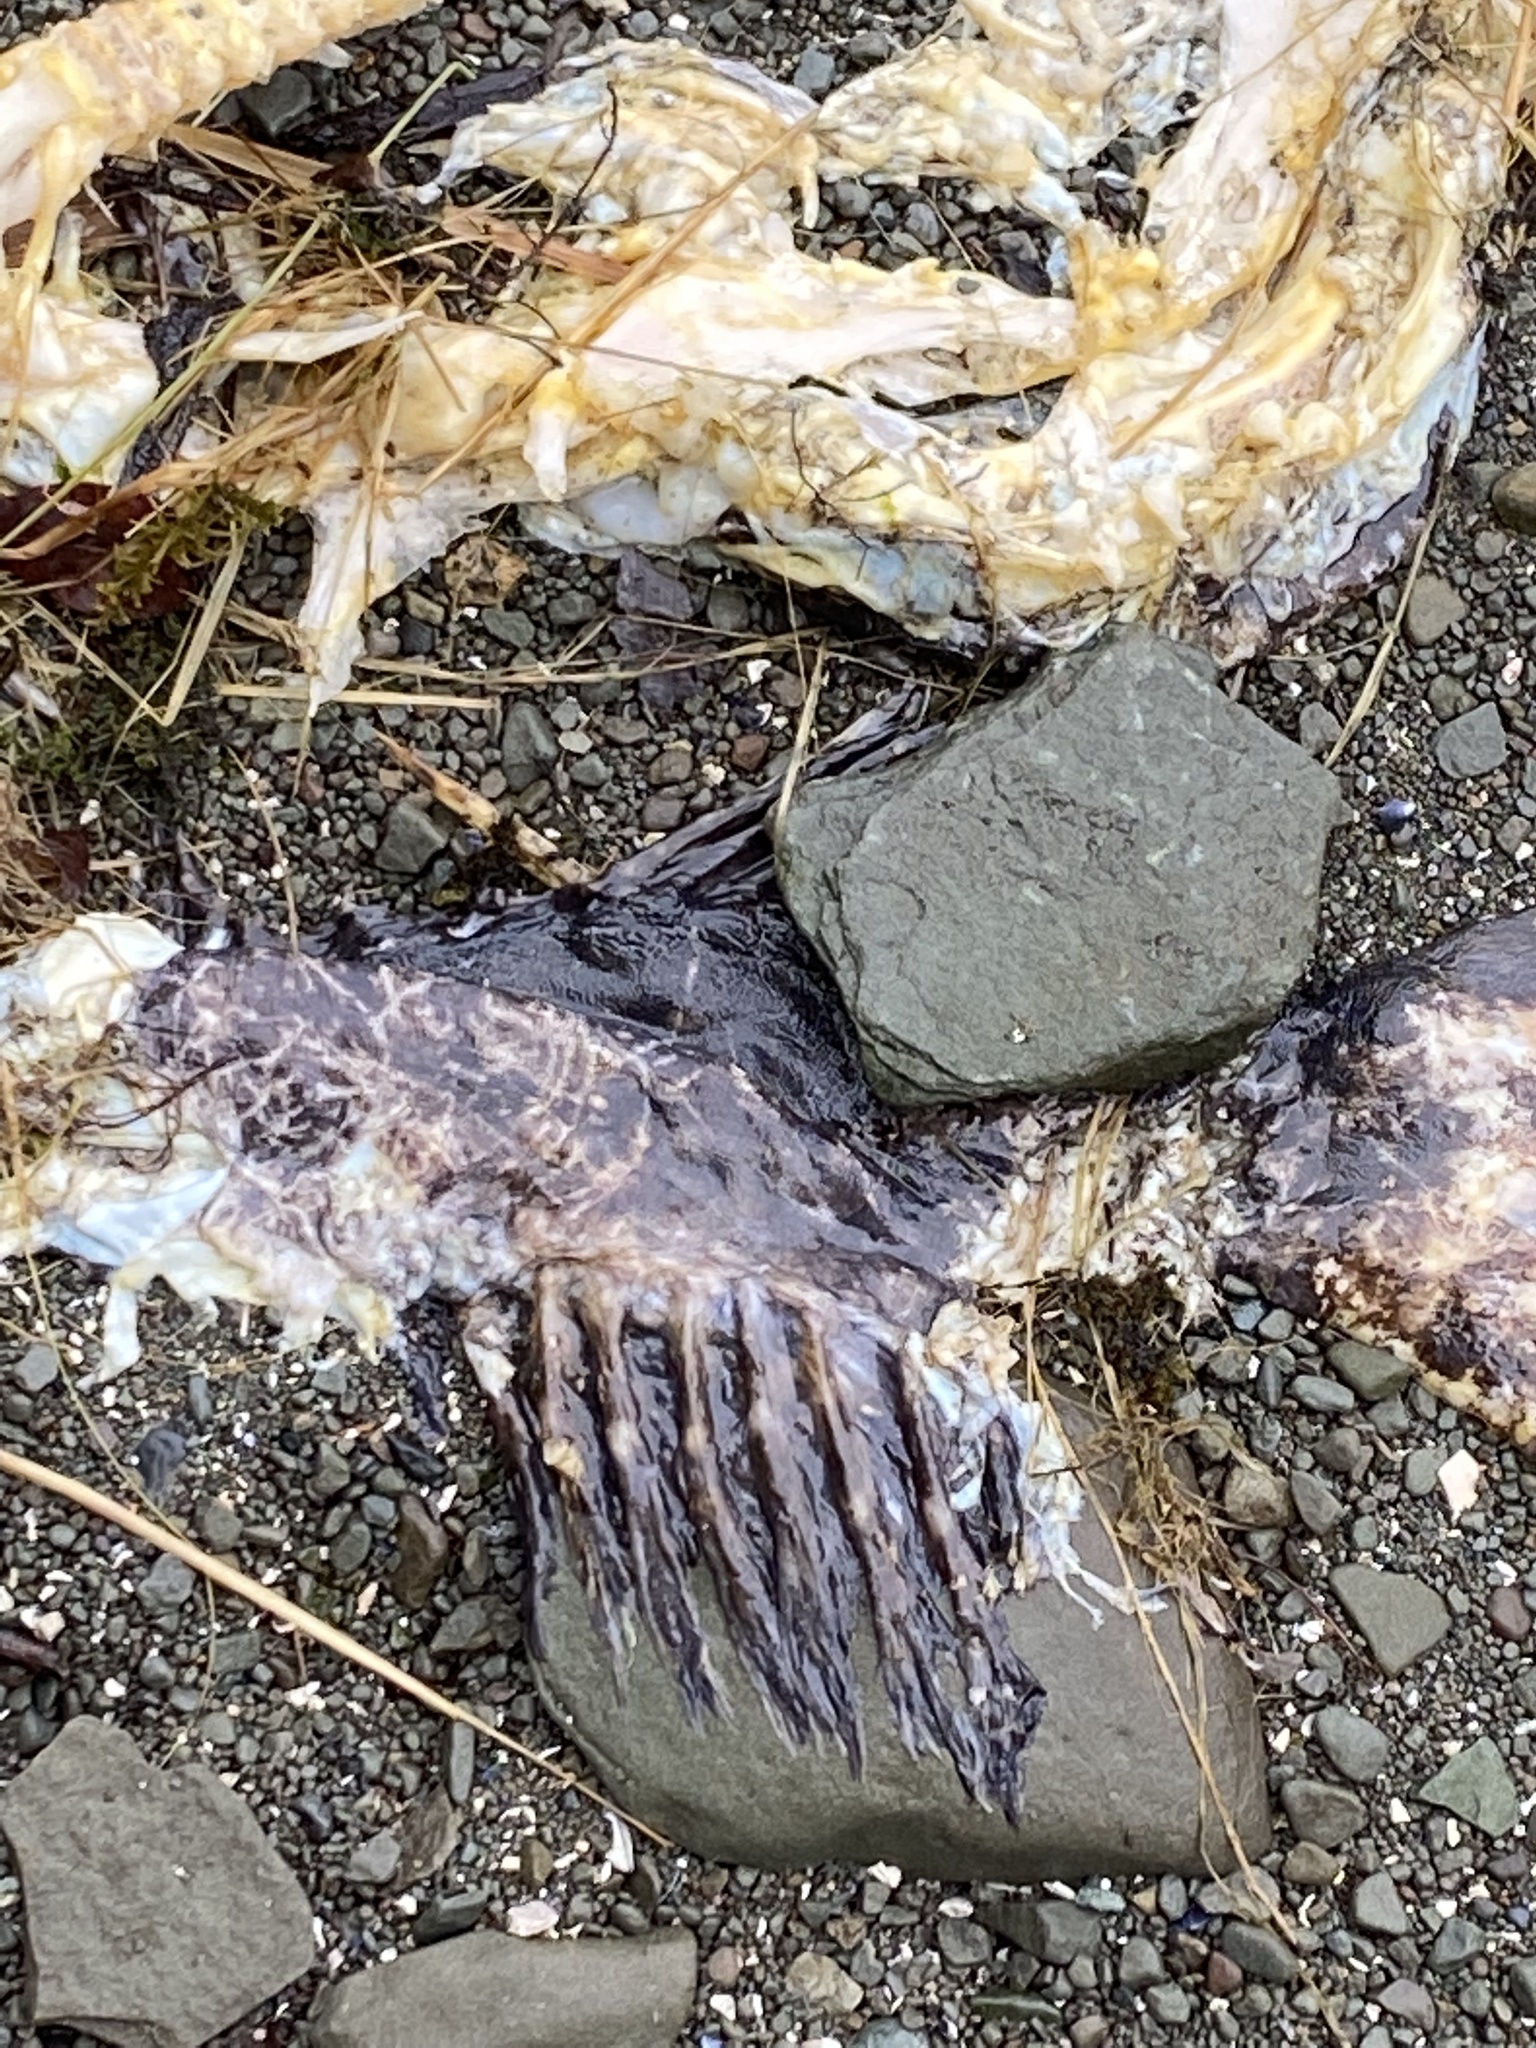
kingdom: Animalia
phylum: Chordata
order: Scorpaeniformes
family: Hexagrammidae
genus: Ophiodon
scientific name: Ophiodon elongatus
